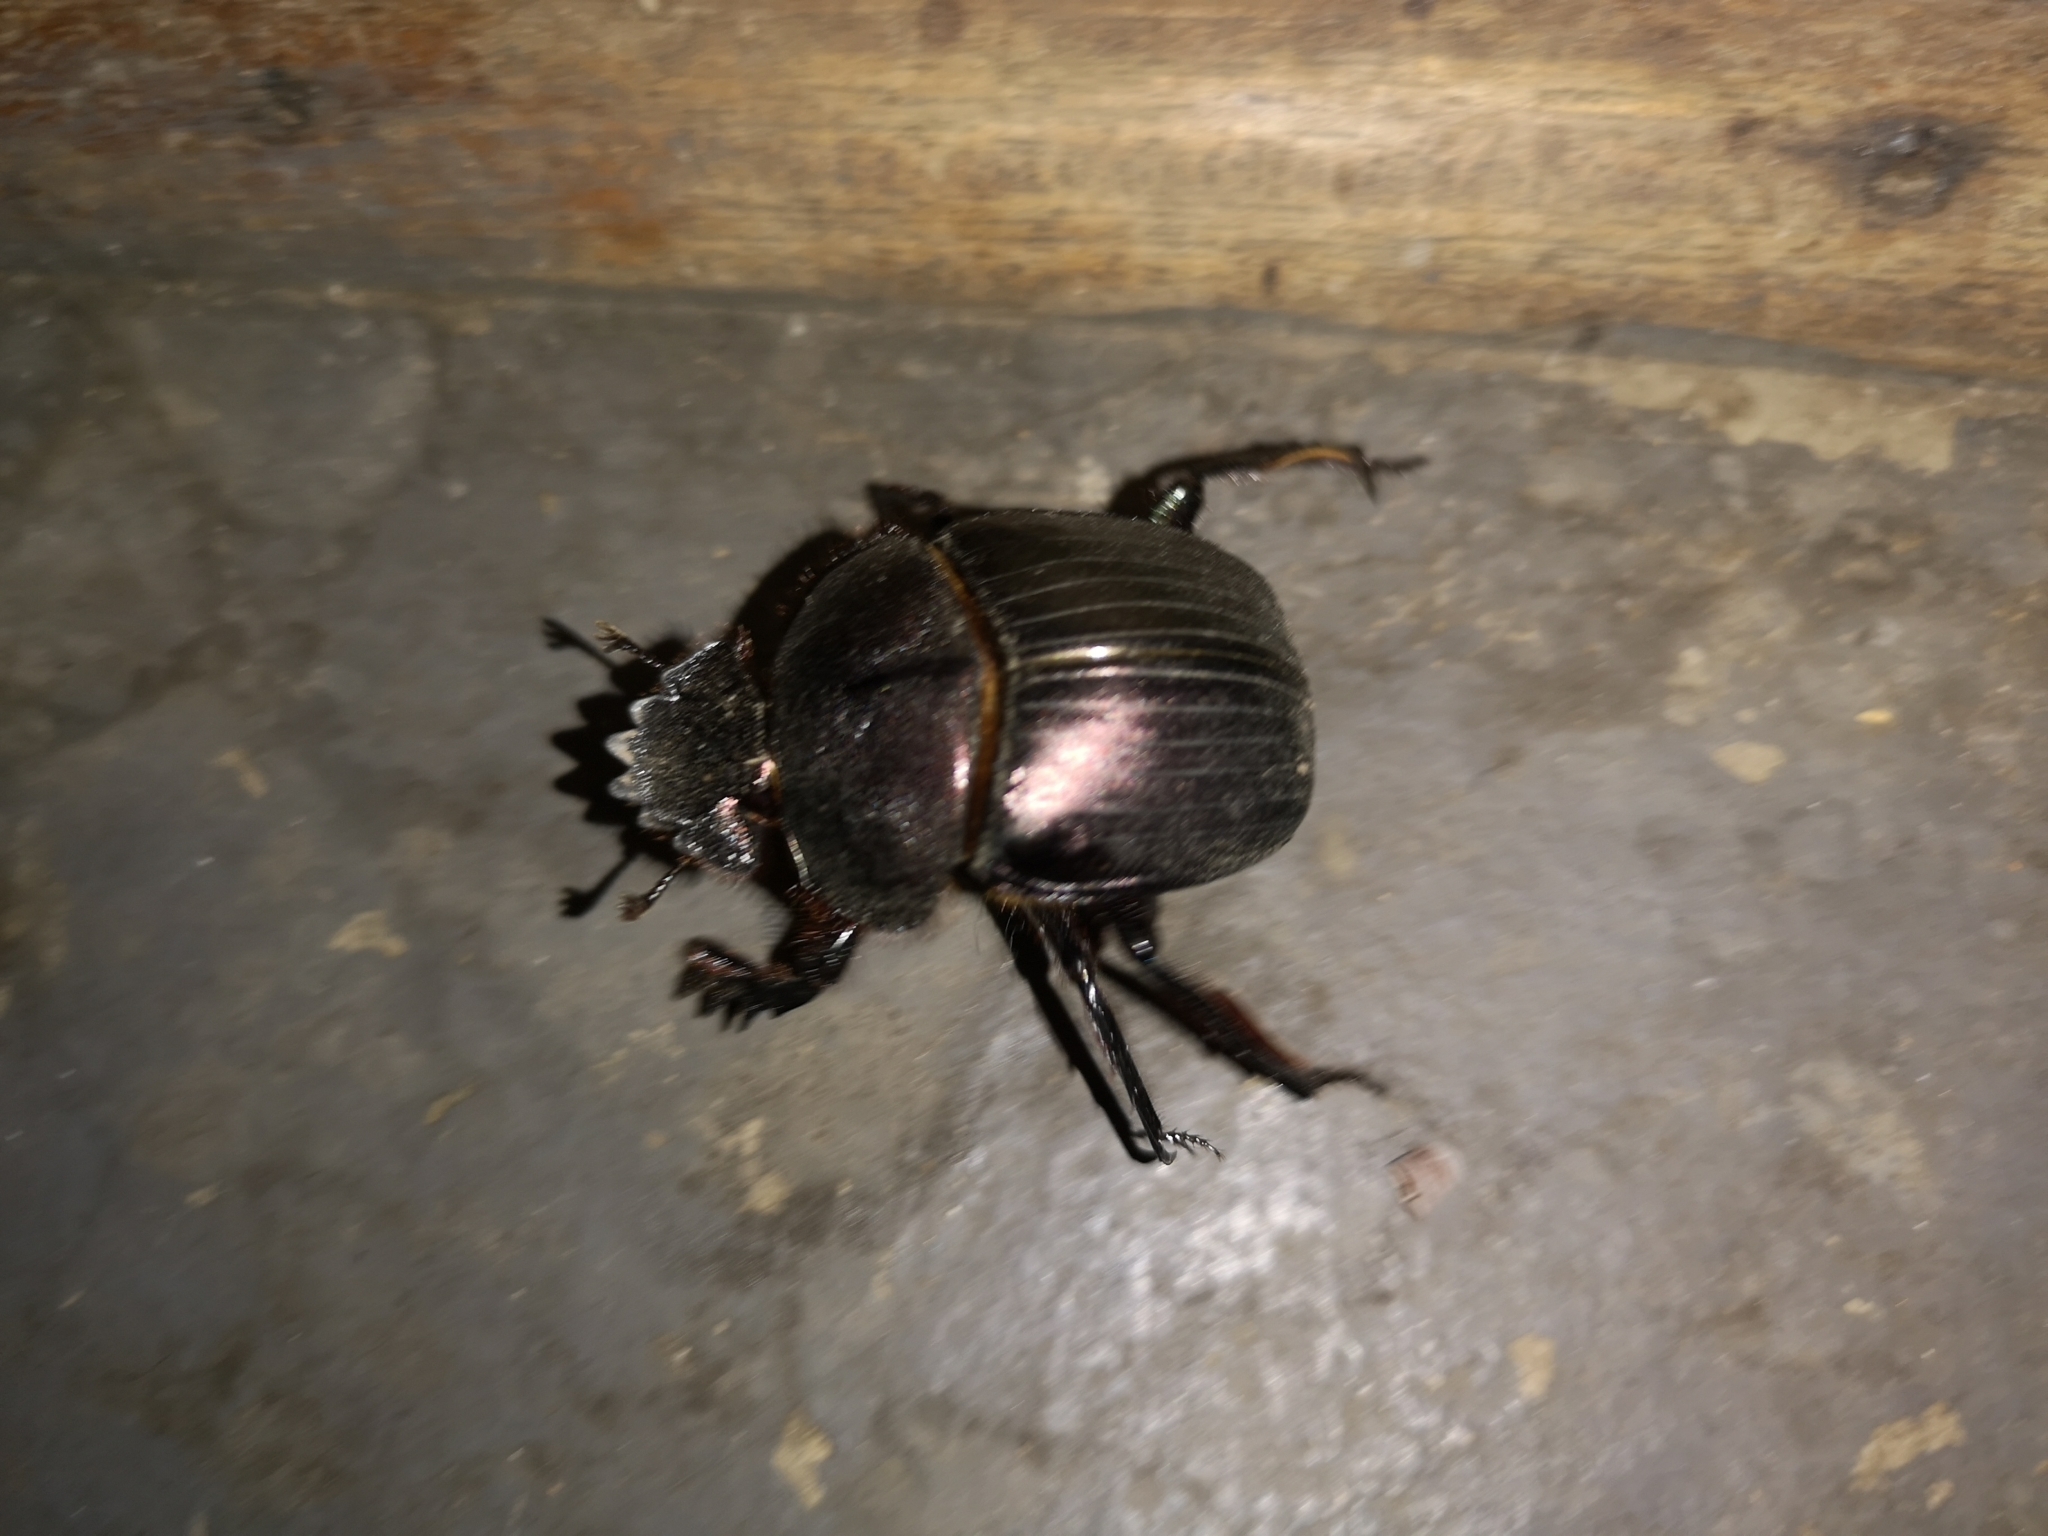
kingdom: Animalia
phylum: Arthropoda
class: Insecta
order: Coleoptera
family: Scarabaeidae
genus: Kheper
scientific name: Kheper nigroaeneus
